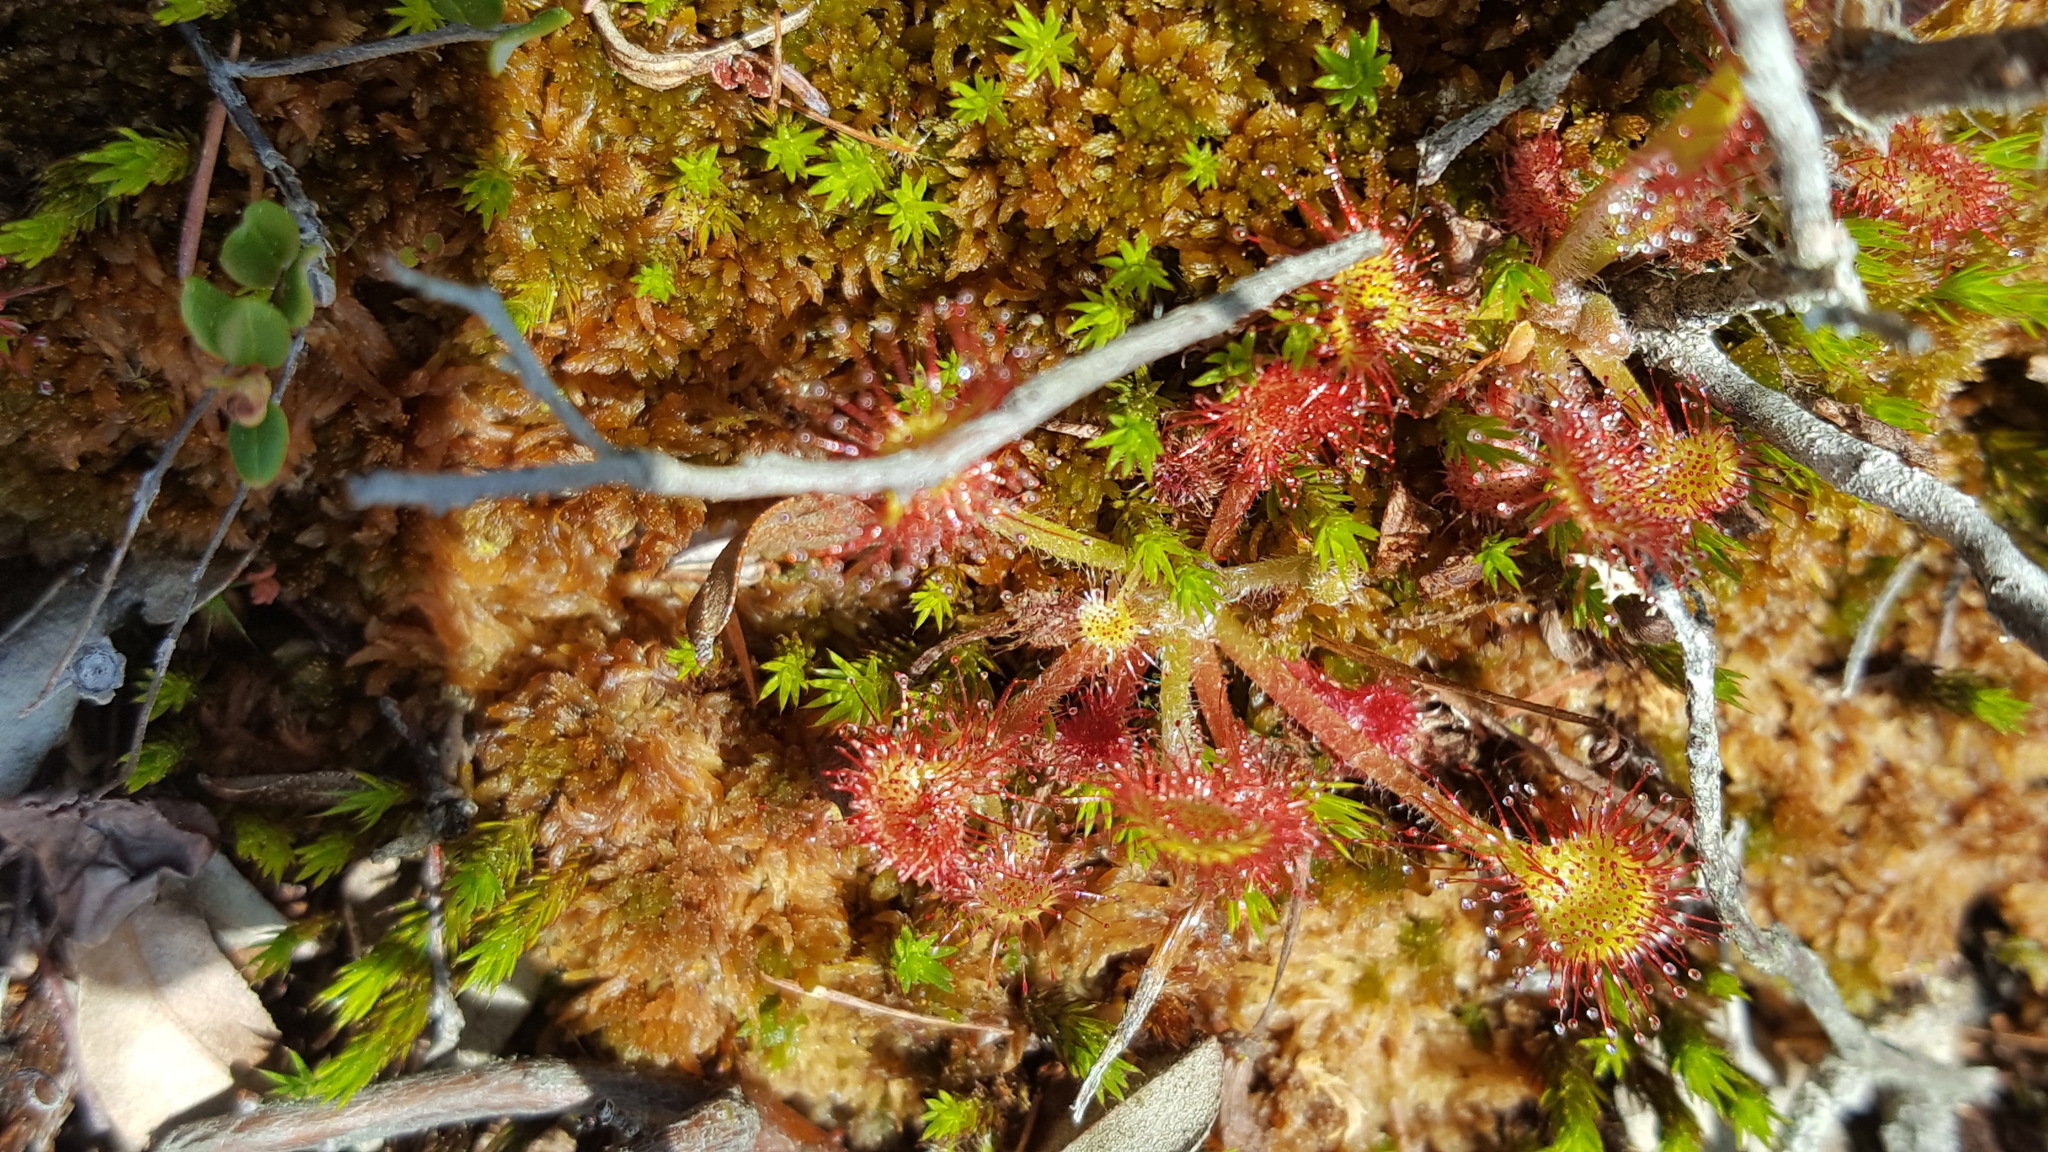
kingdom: Plantae
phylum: Tracheophyta
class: Magnoliopsida
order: Caryophyllales
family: Droseraceae
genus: Drosera
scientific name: Drosera rotundifolia
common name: Round-leaved sundew
